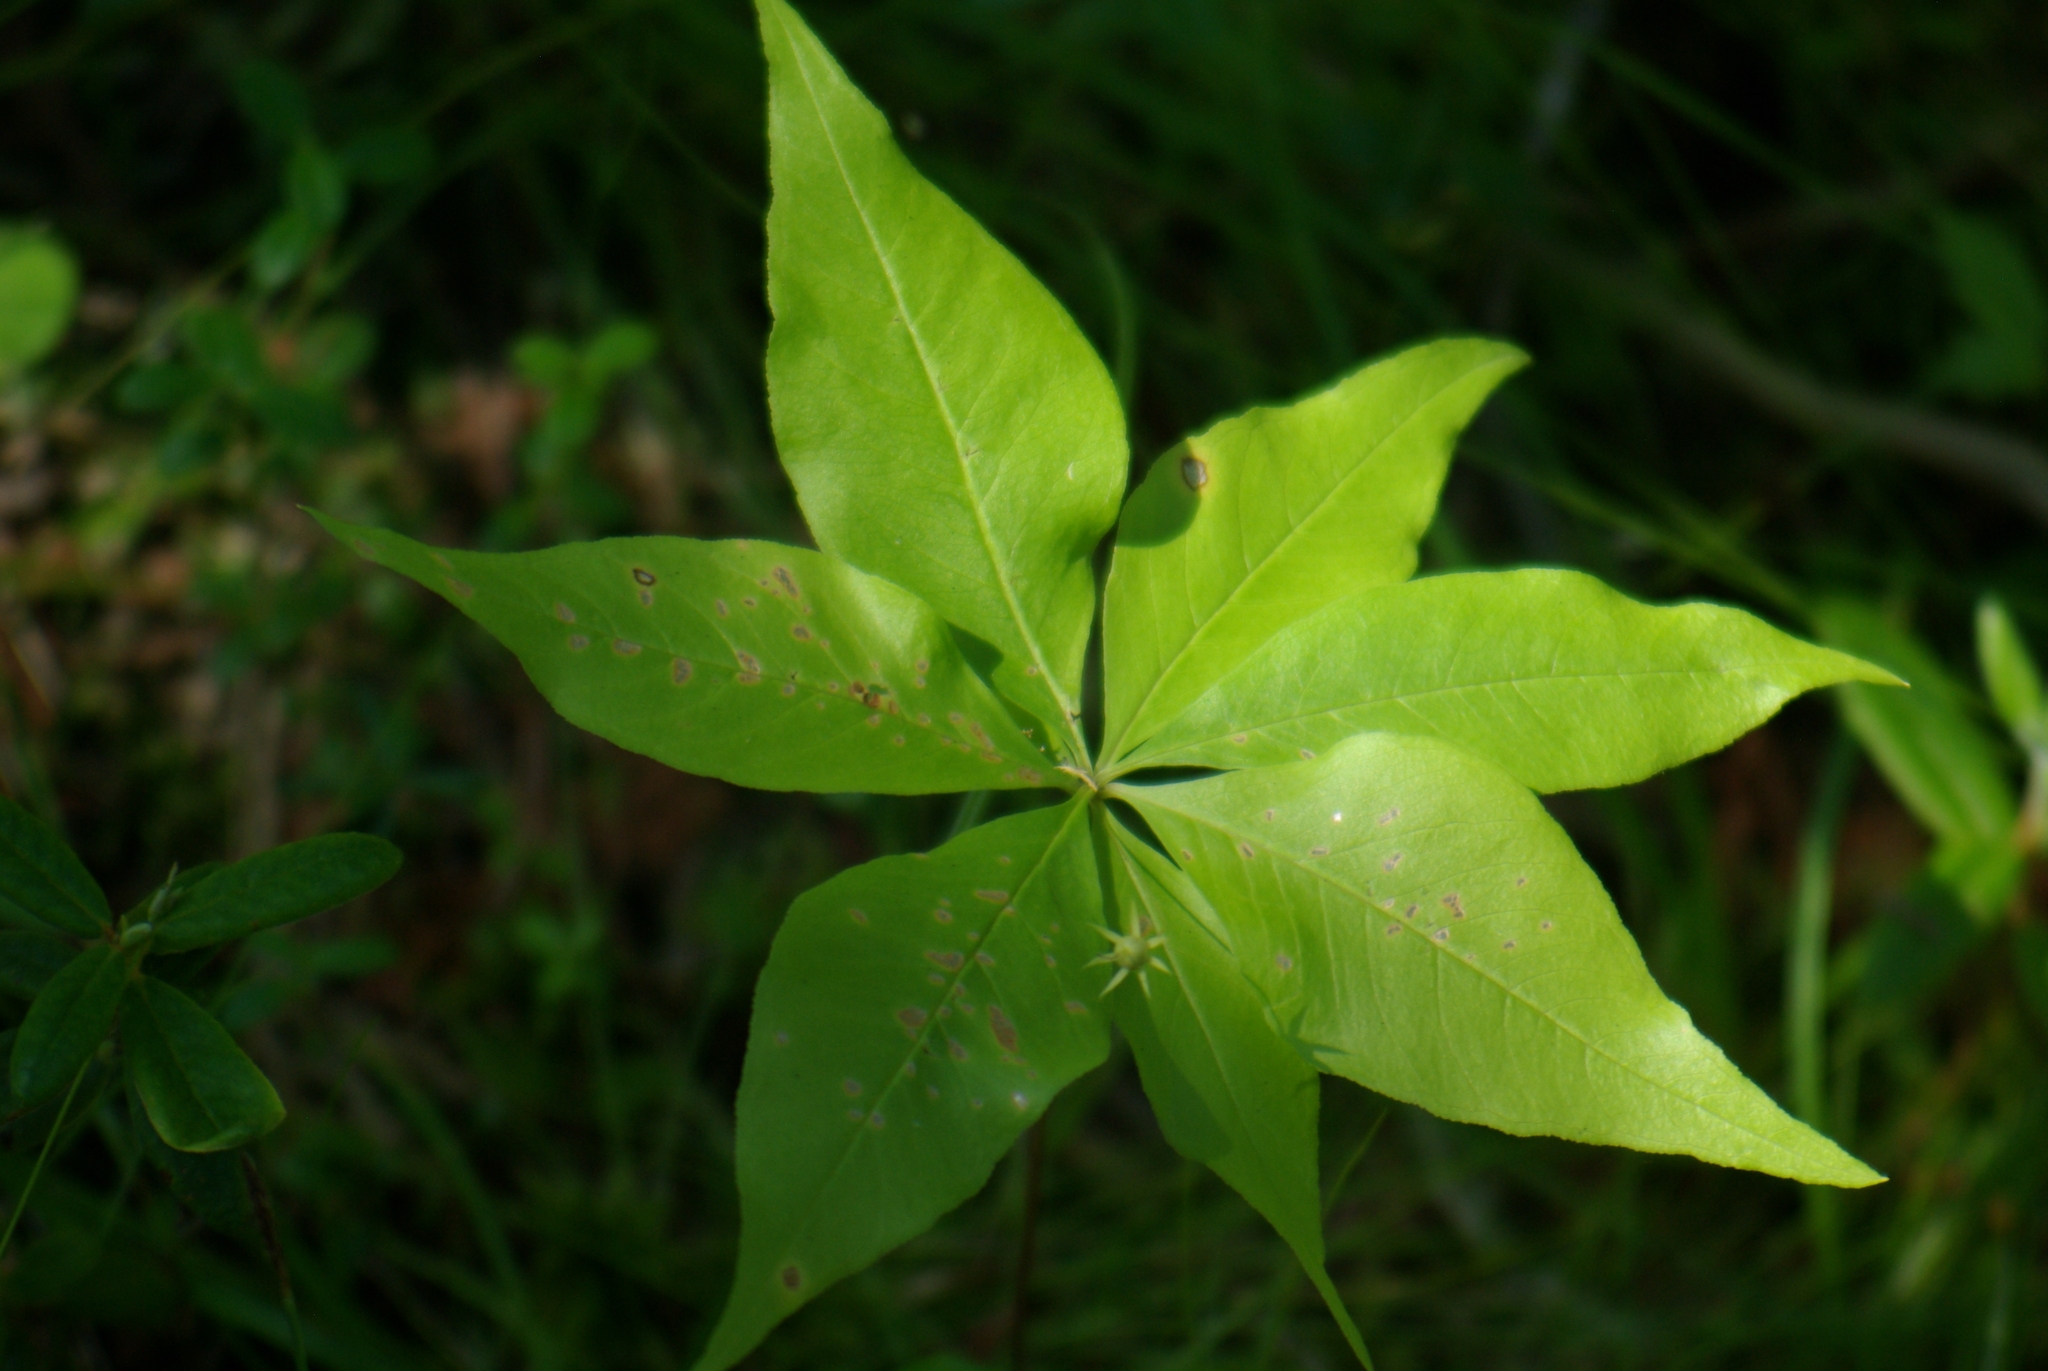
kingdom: Plantae
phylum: Tracheophyta
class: Magnoliopsida
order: Ericales
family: Primulaceae
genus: Lysimachia
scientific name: Lysimachia borealis
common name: American starflower
